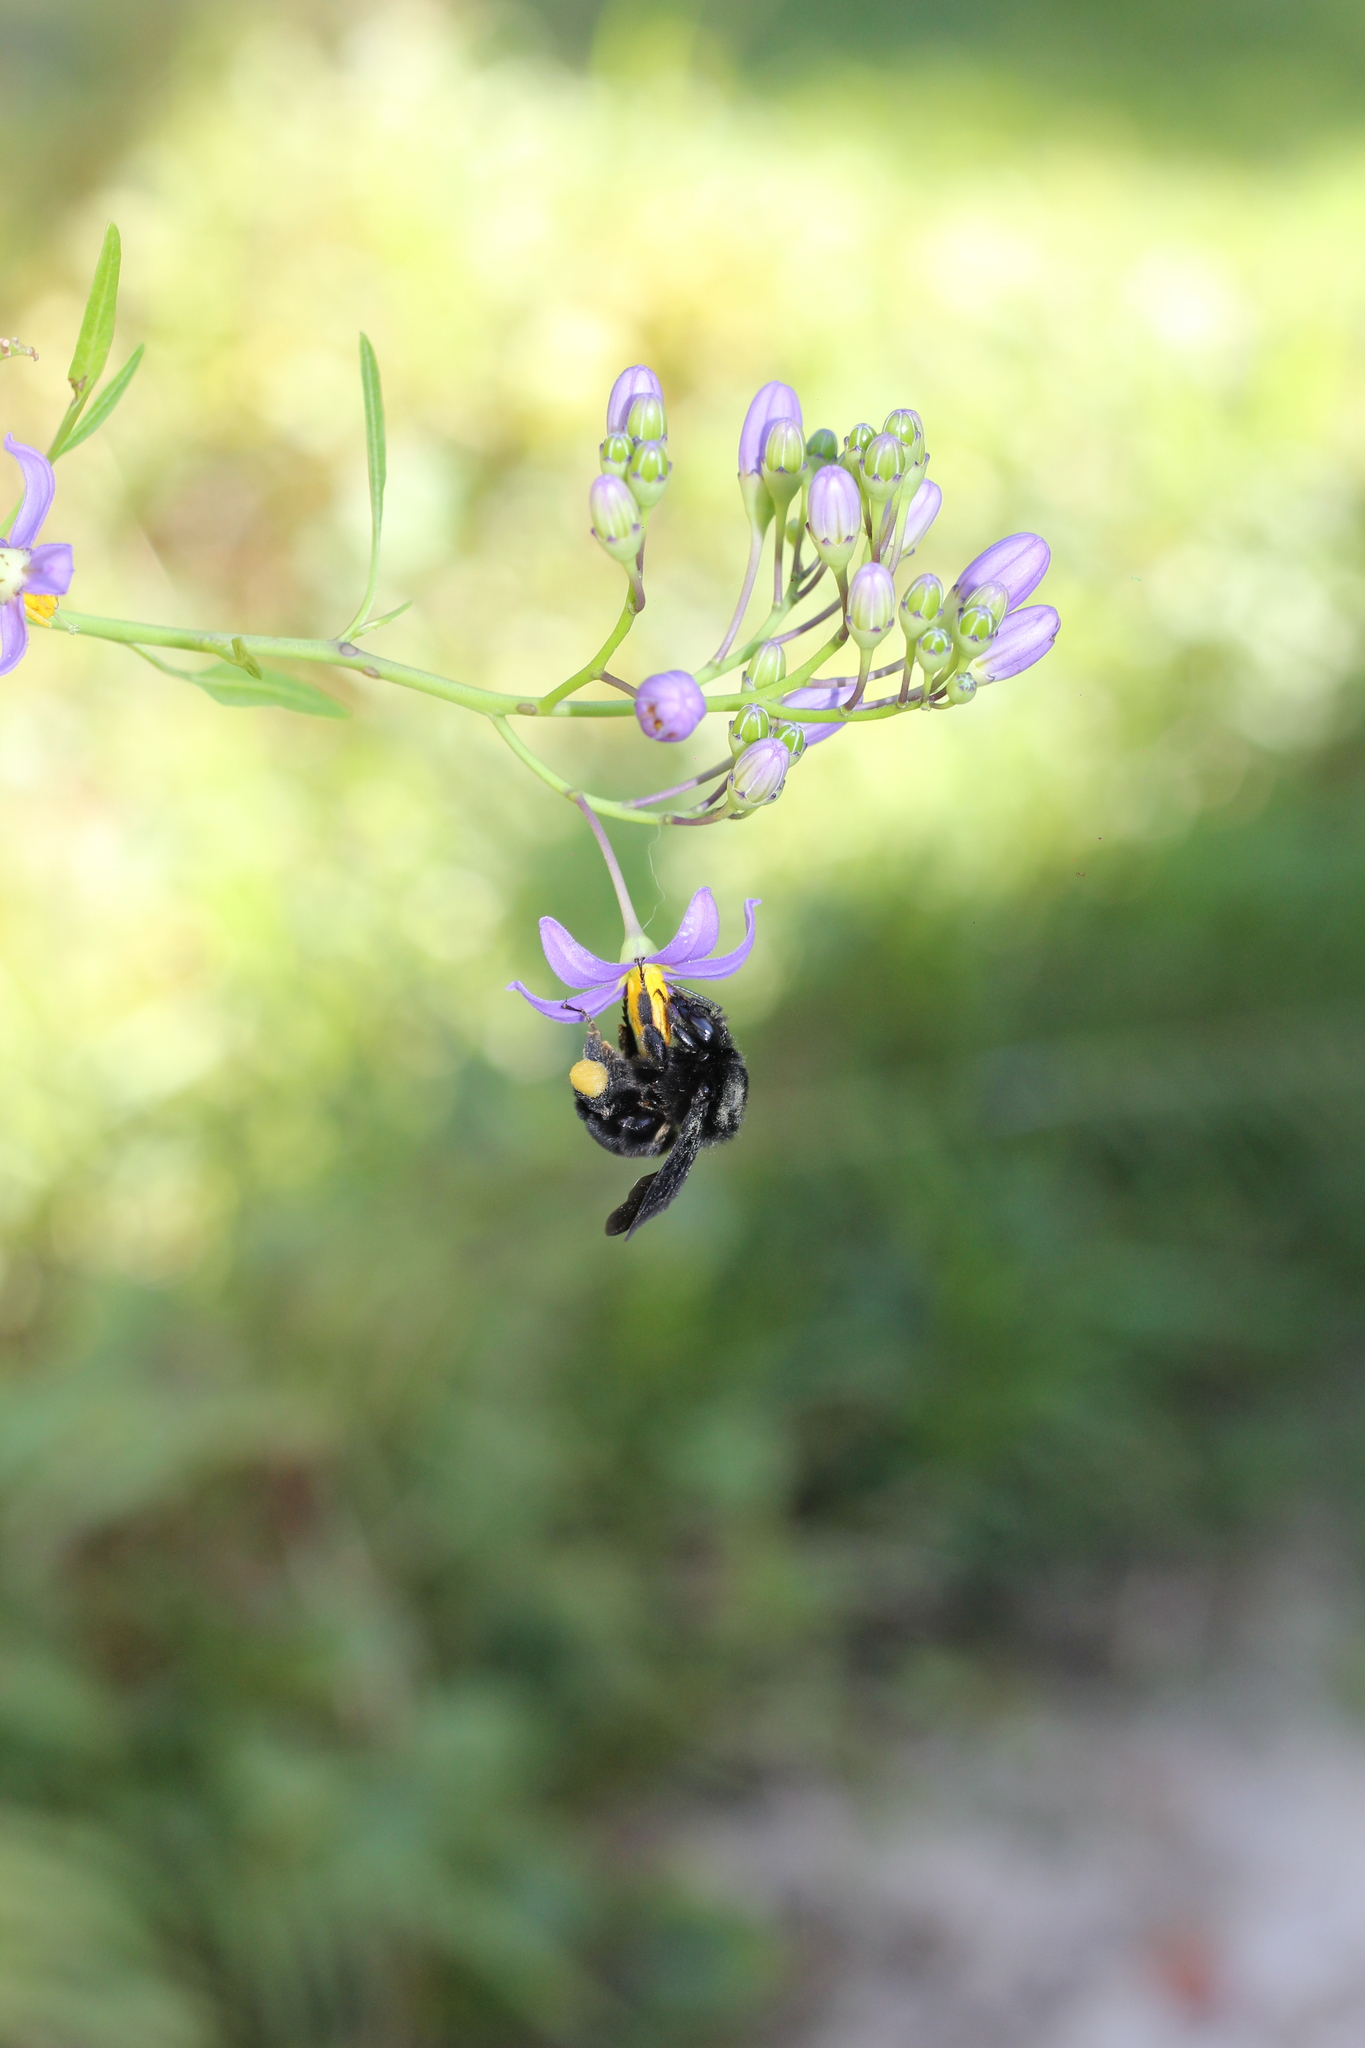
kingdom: Animalia
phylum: Arthropoda
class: Insecta
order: Hymenoptera
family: Apidae
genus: Bombus
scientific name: Bombus pauloensis
